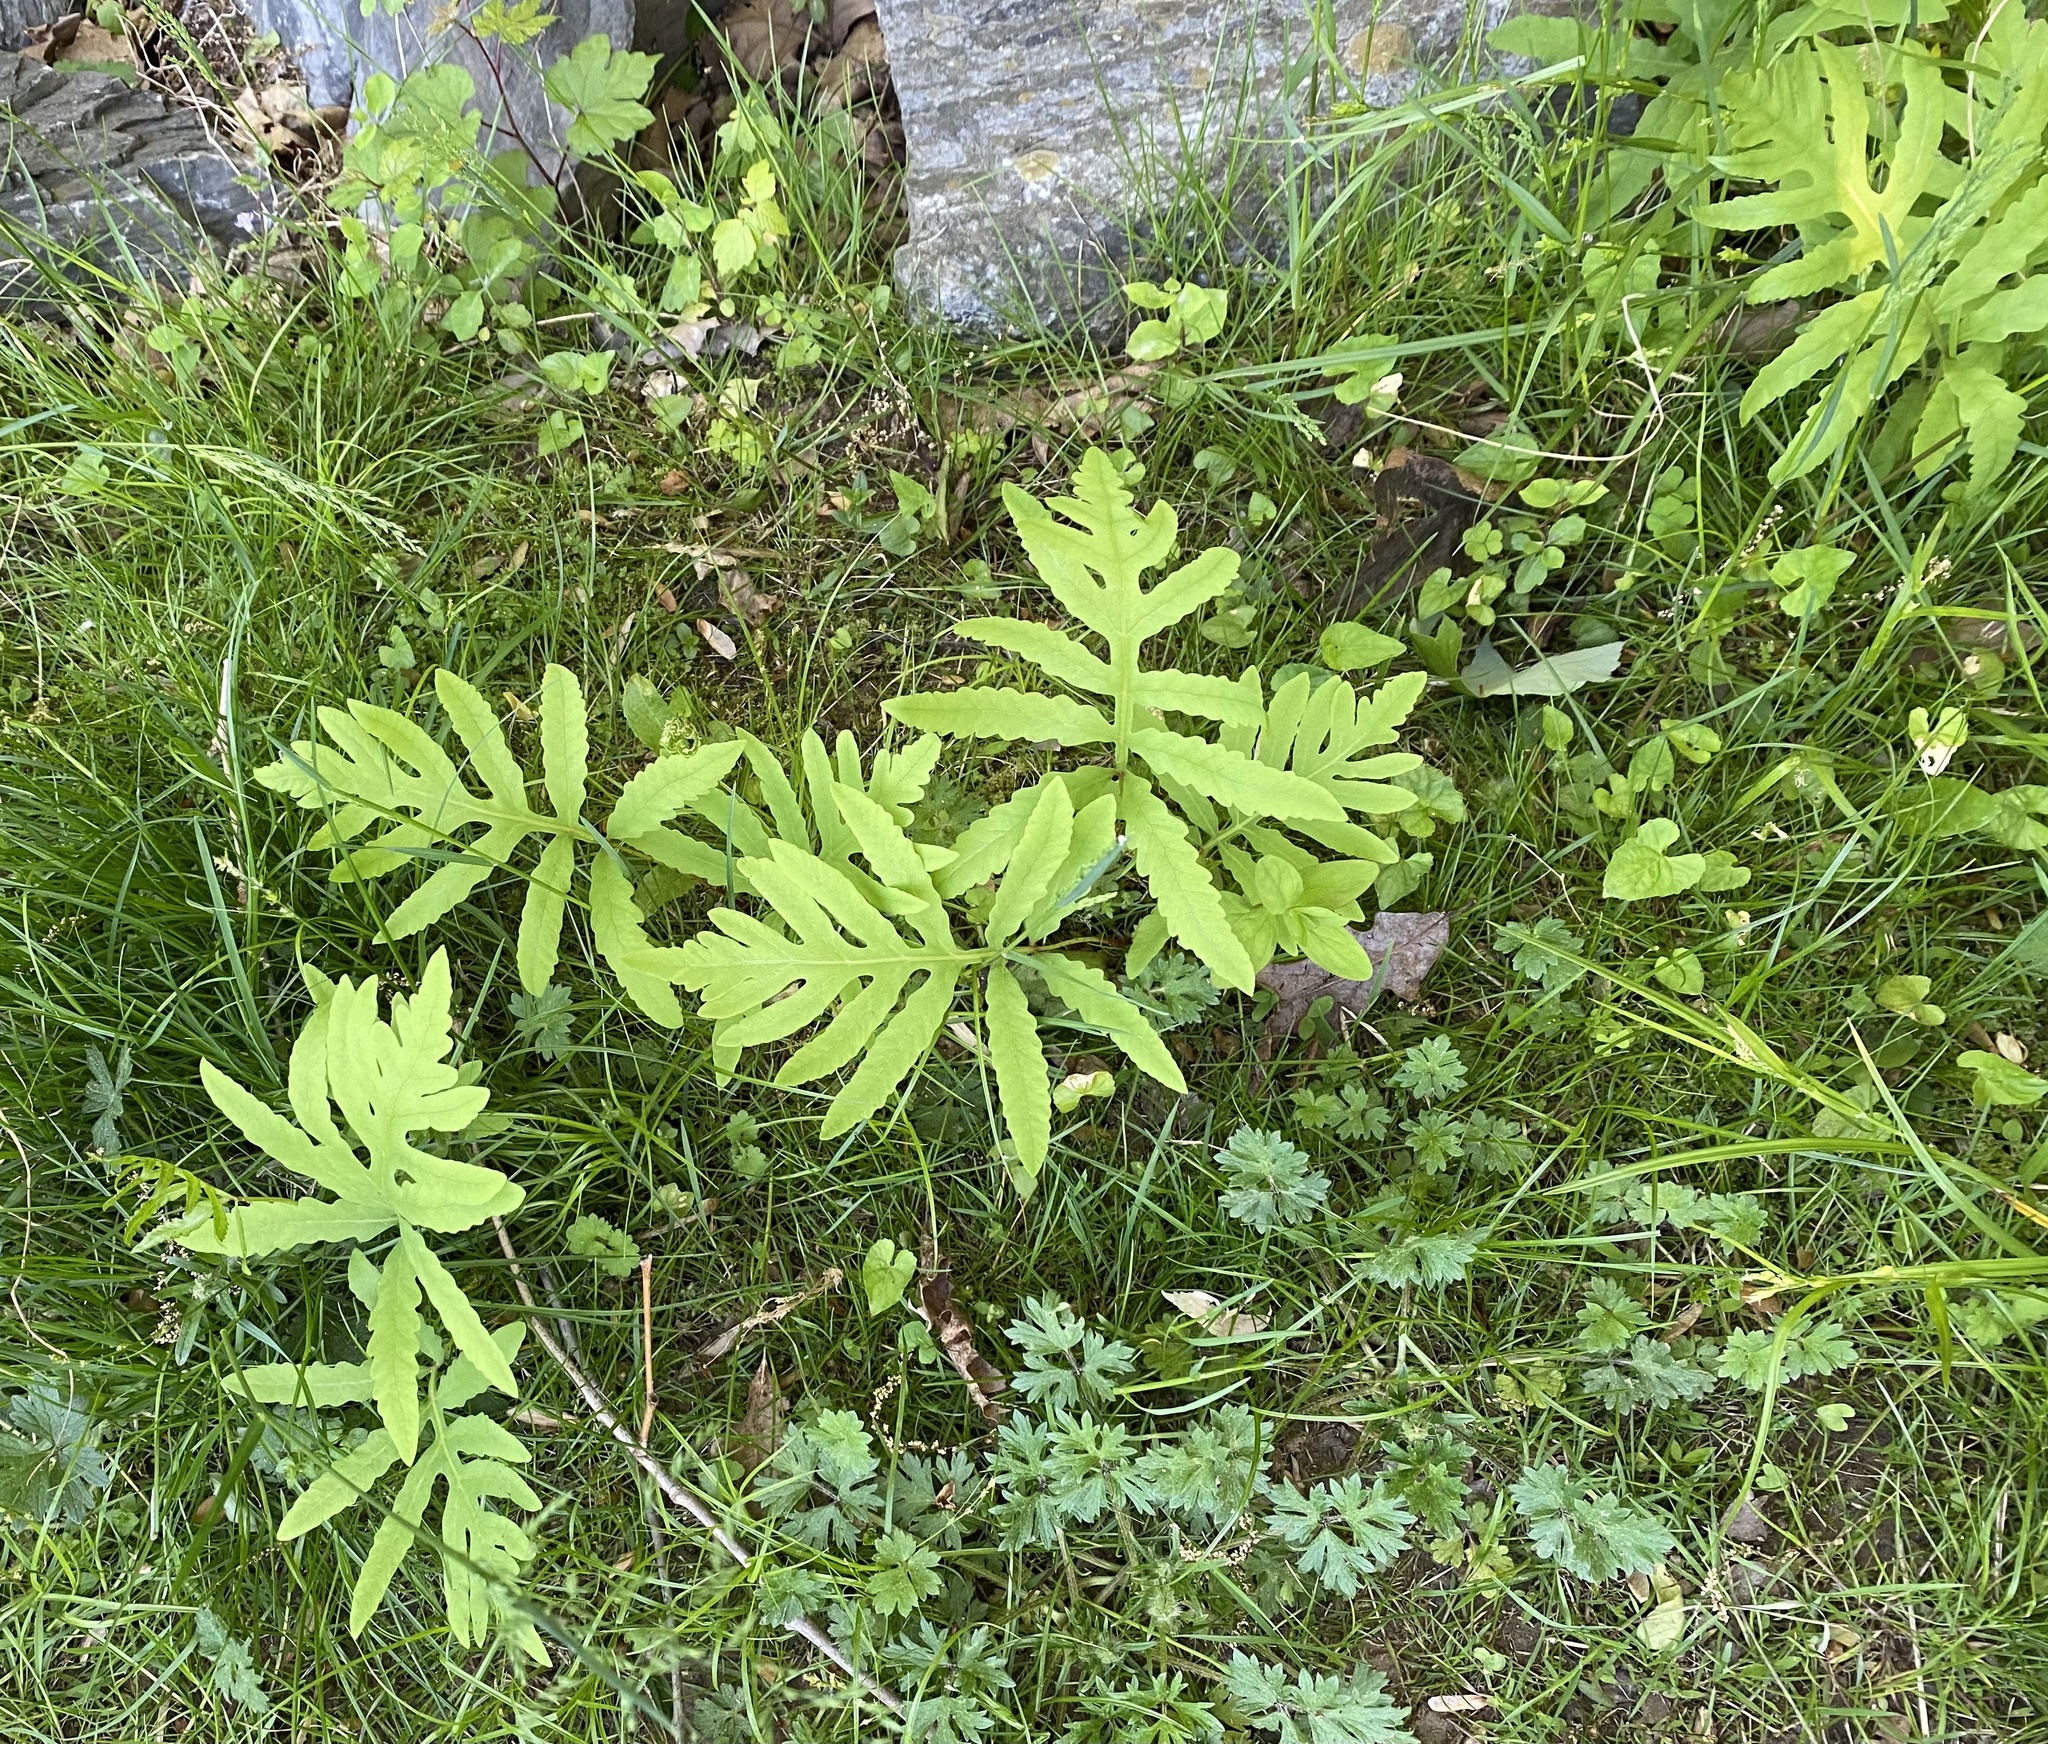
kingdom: Plantae
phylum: Tracheophyta
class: Polypodiopsida
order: Polypodiales
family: Onocleaceae
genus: Onoclea
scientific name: Onoclea sensibilis
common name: Sensitive fern
